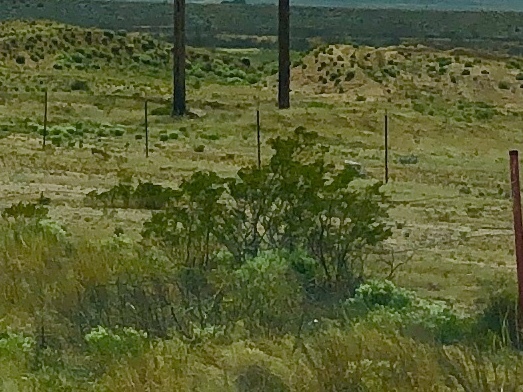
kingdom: Plantae
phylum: Tracheophyta
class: Magnoliopsida
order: Zygophyllales
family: Zygophyllaceae
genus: Larrea
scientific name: Larrea tridentata
